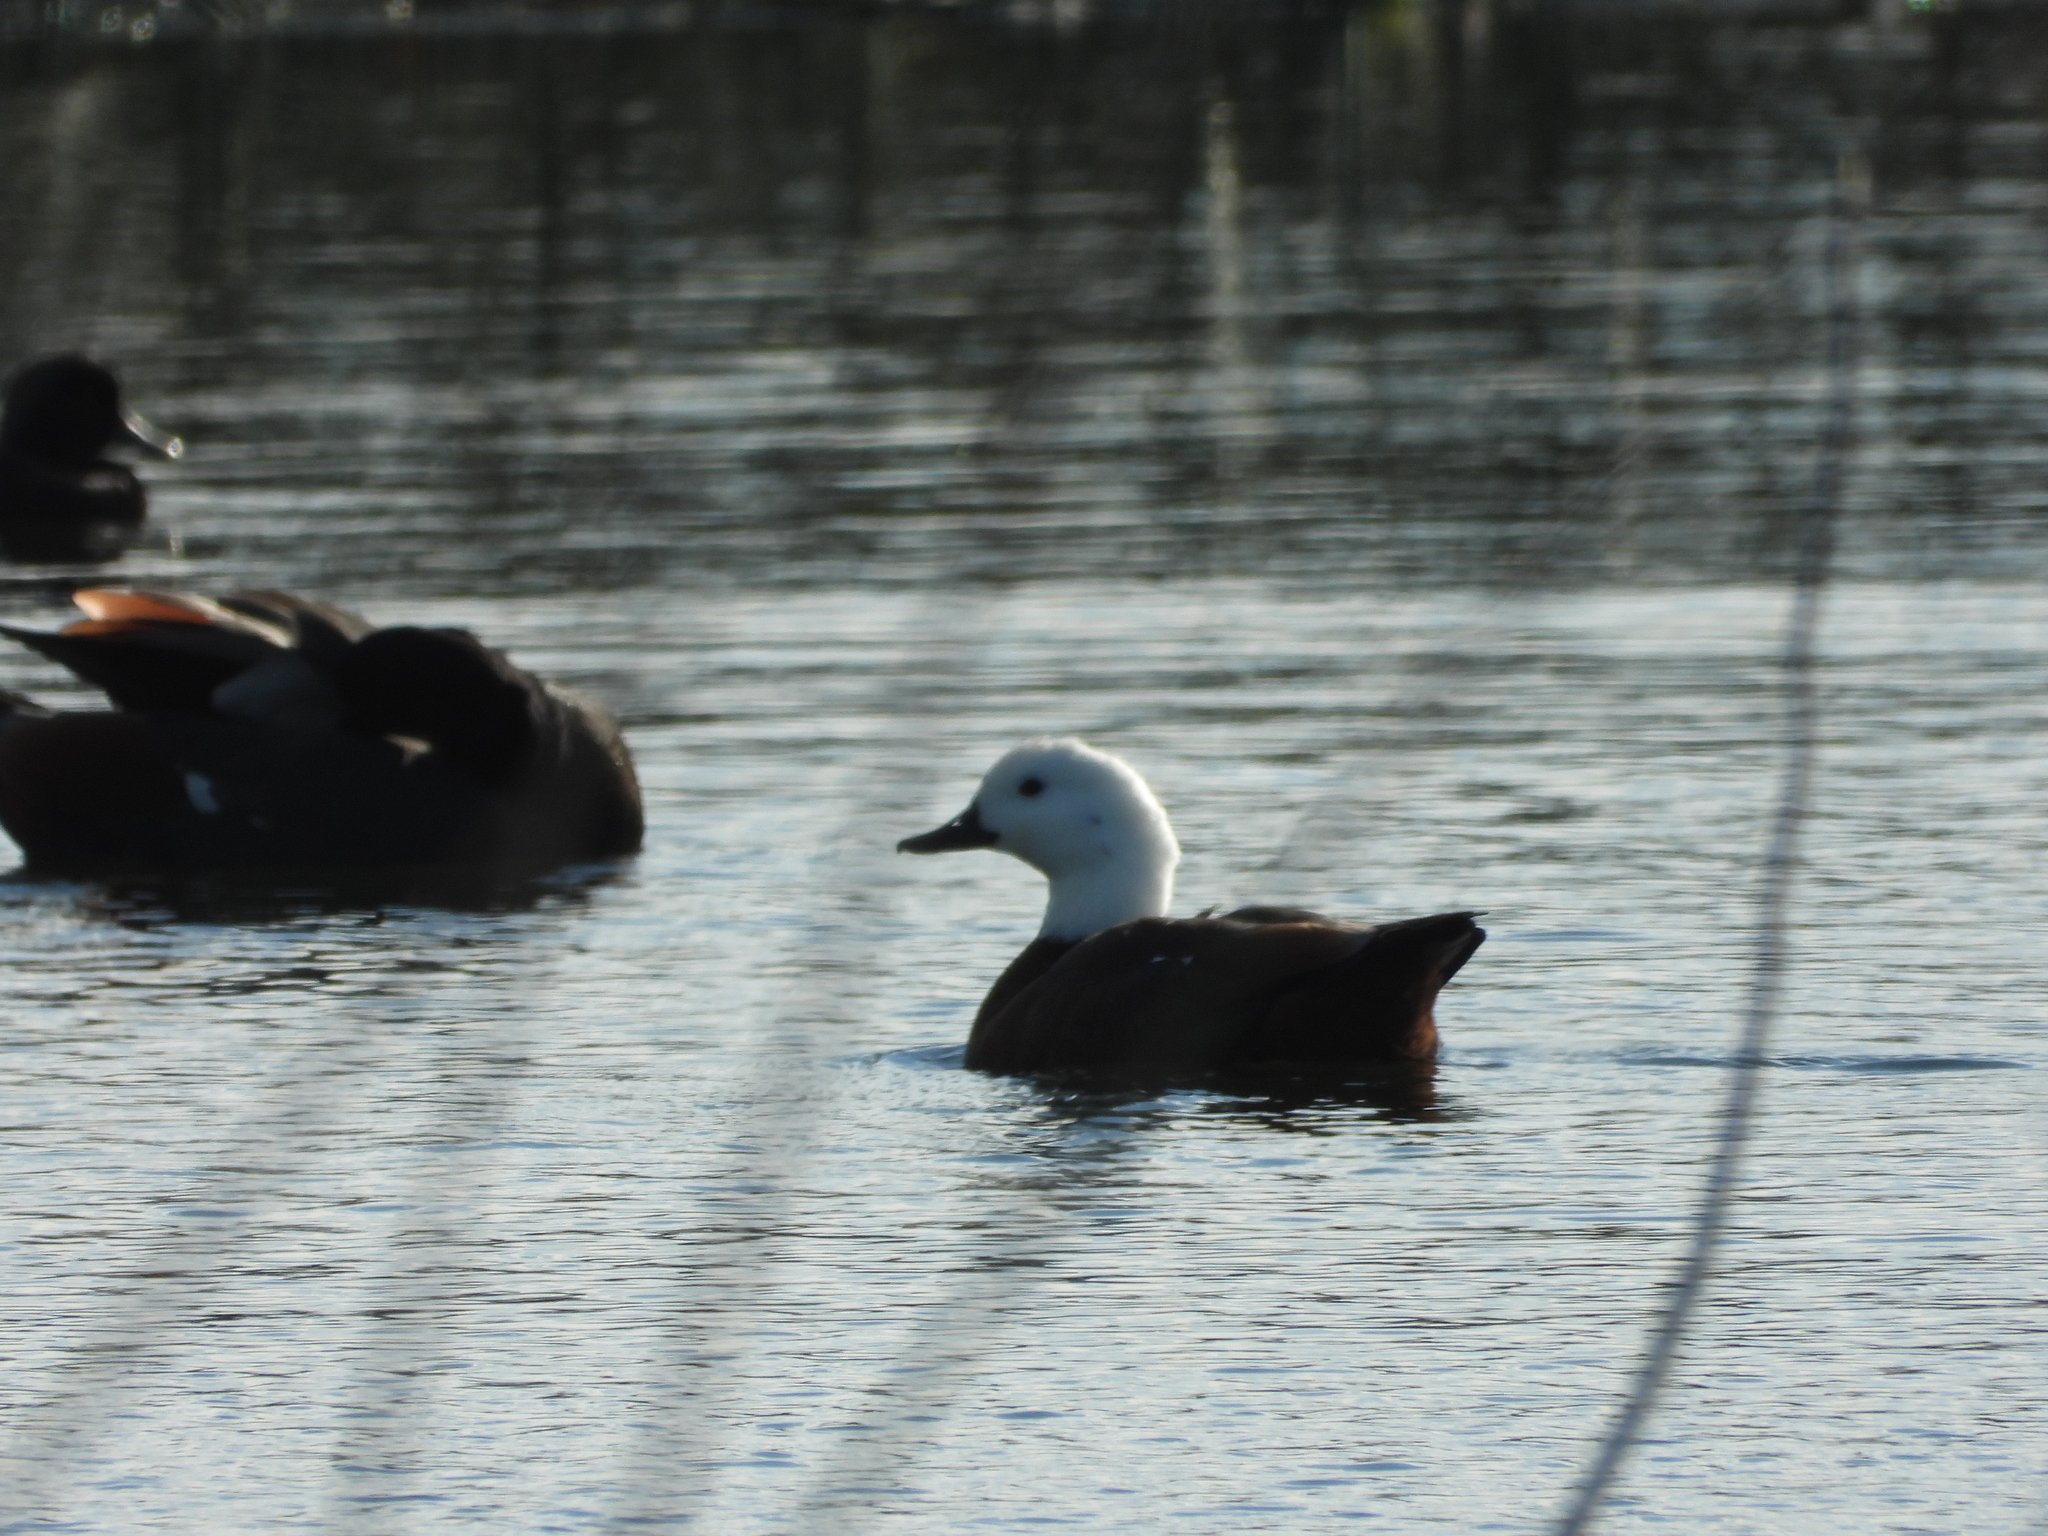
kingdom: Animalia
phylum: Chordata
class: Aves
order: Anseriformes
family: Anatidae
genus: Tadorna
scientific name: Tadorna variegata
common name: Paradise shelduck
